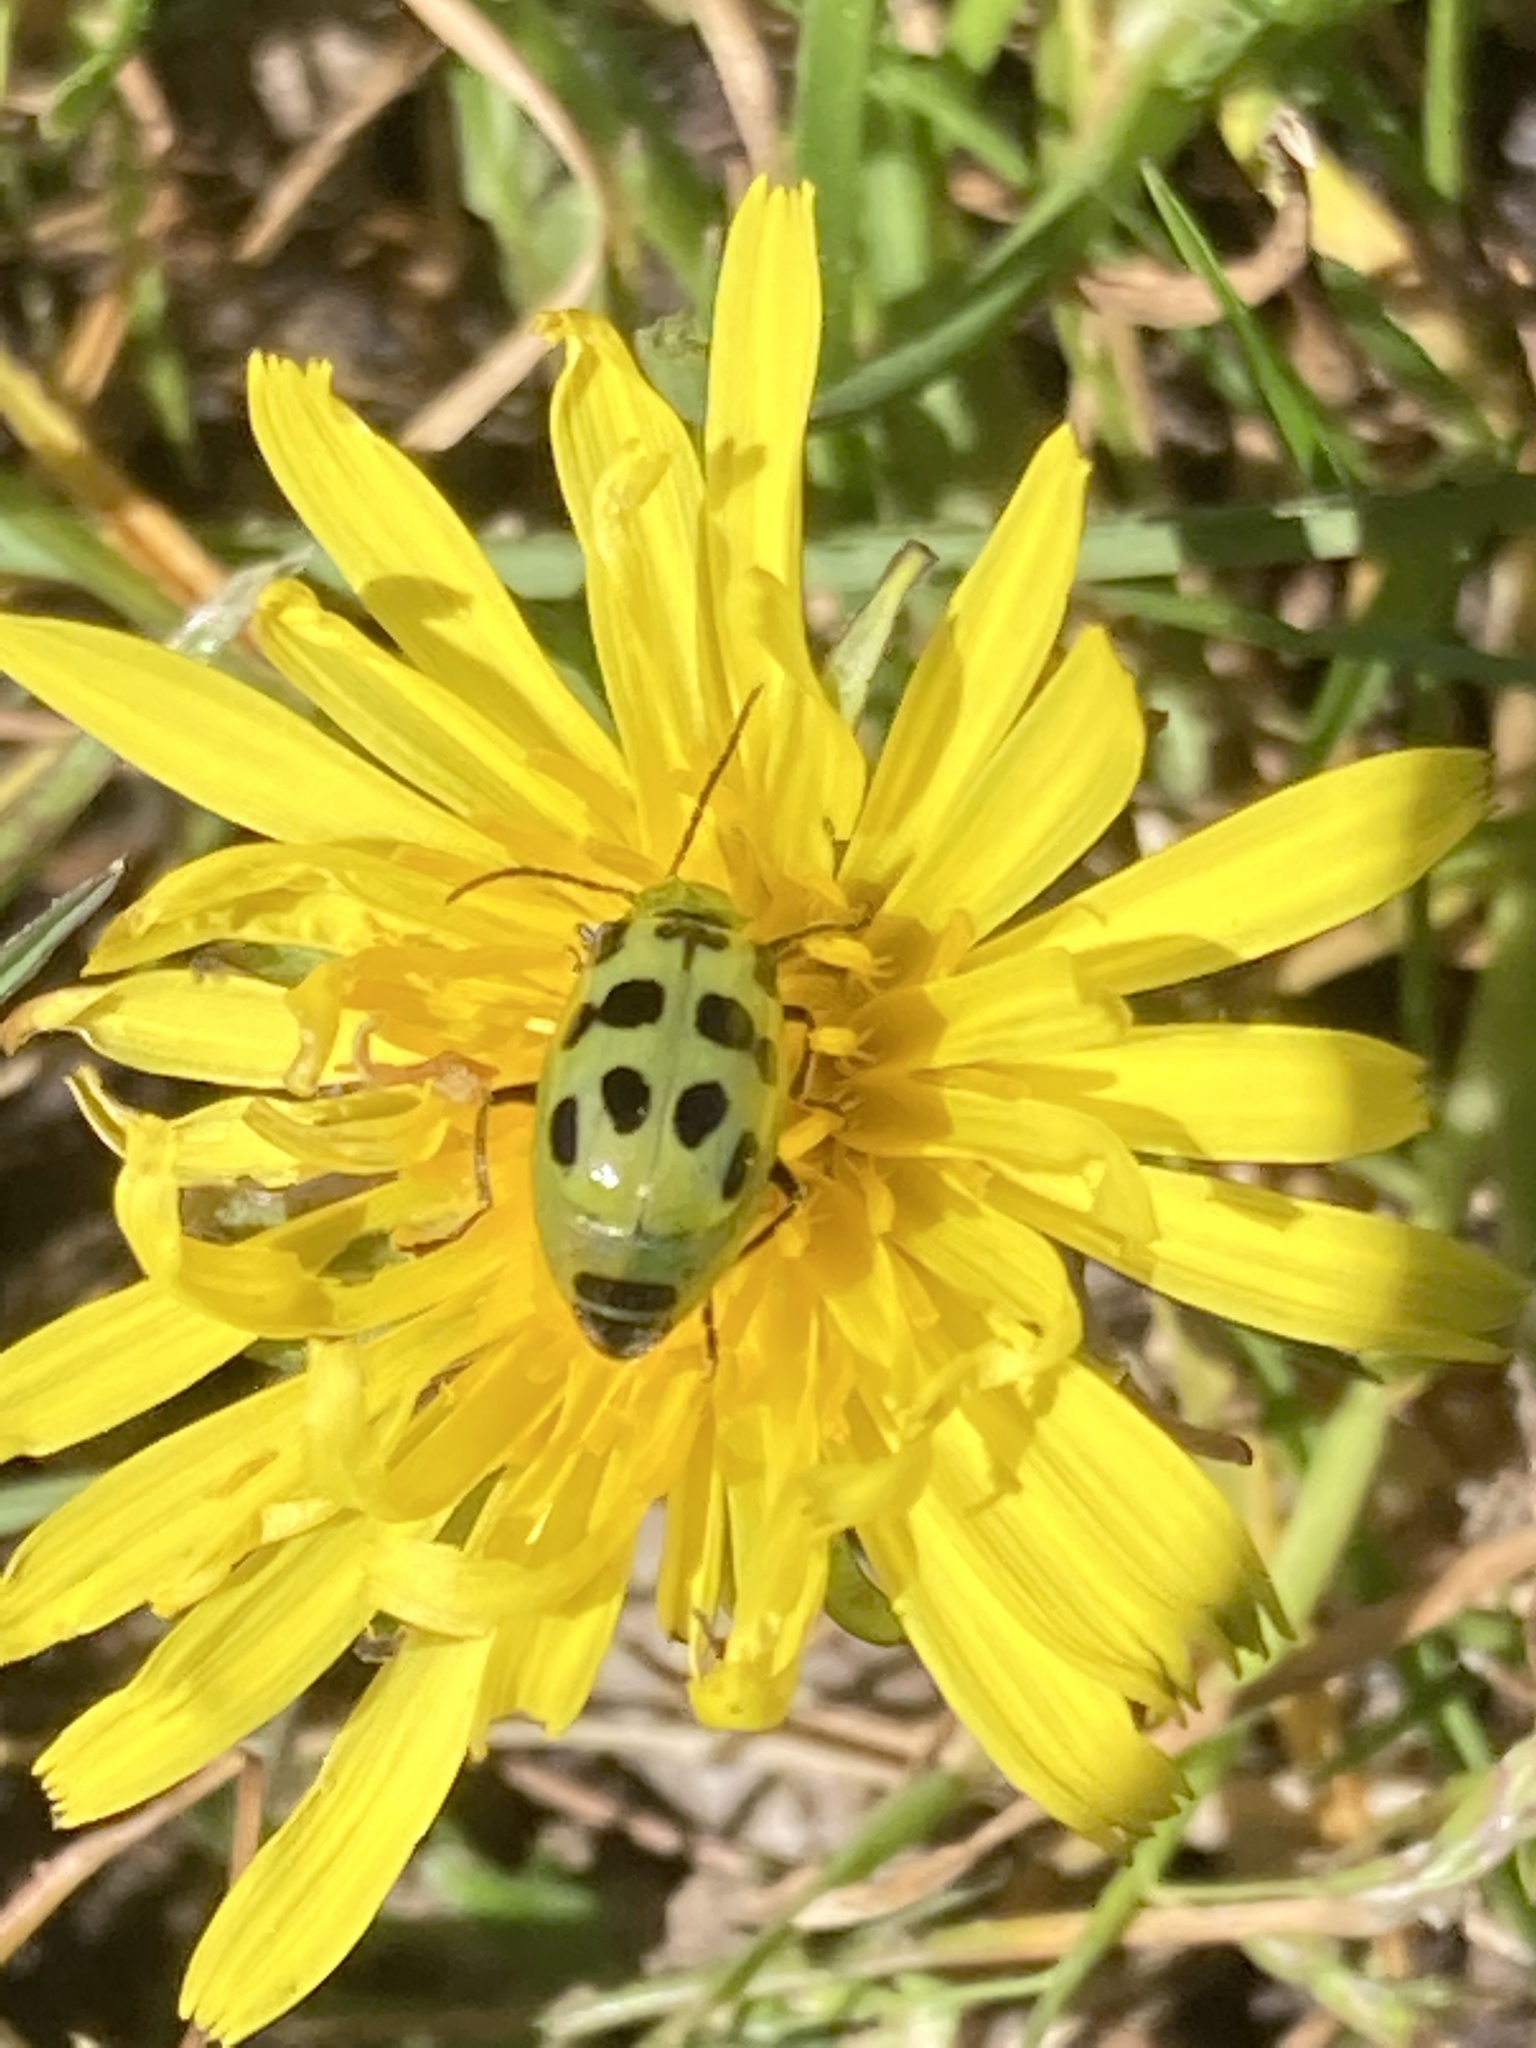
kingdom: Animalia
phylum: Arthropoda
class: Insecta
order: Coleoptera
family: Chrysomelidae
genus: Diabrotica
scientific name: Diabrotica undecimpunctata
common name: Spotted cucumber beetle
